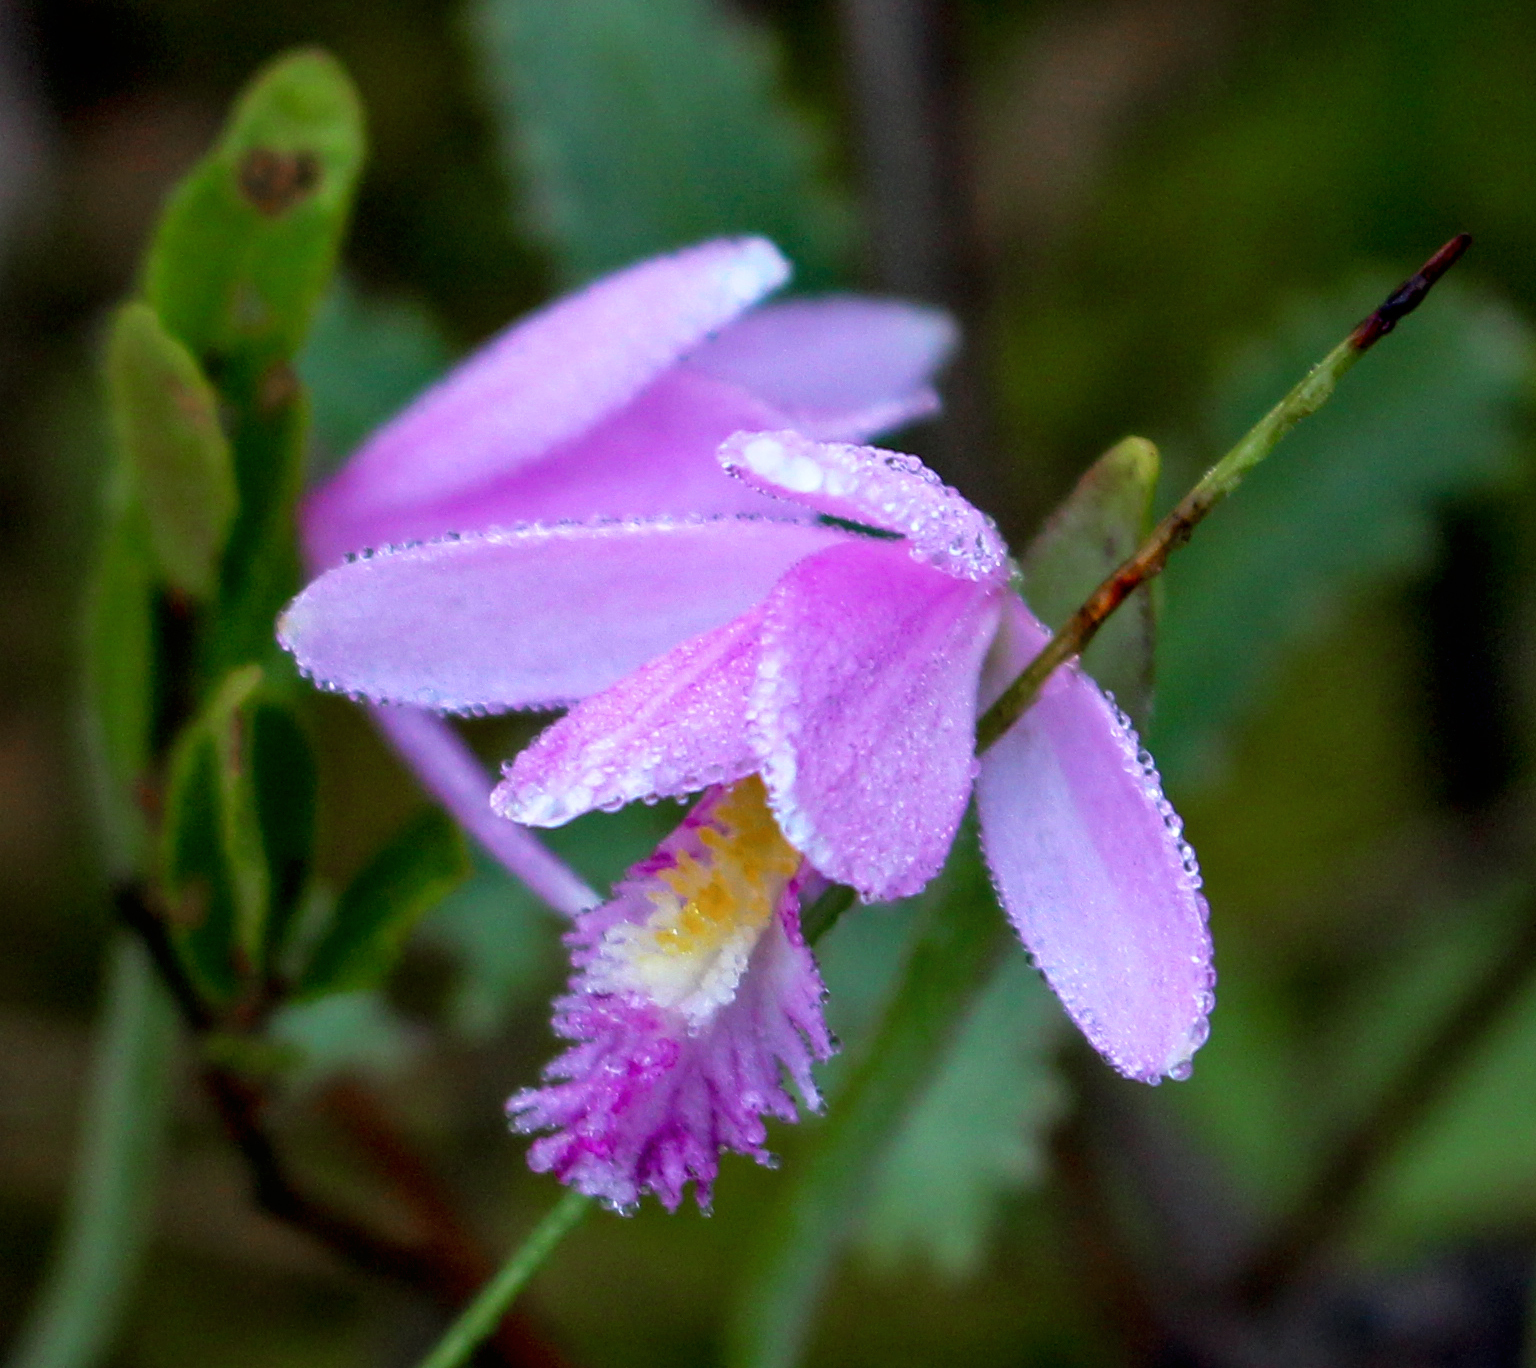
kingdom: Plantae
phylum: Tracheophyta
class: Liliopsida
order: Asparagales
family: Orchidaceae
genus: Pogonia
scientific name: Pogonia ophioglossoides
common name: Rose pogonia
